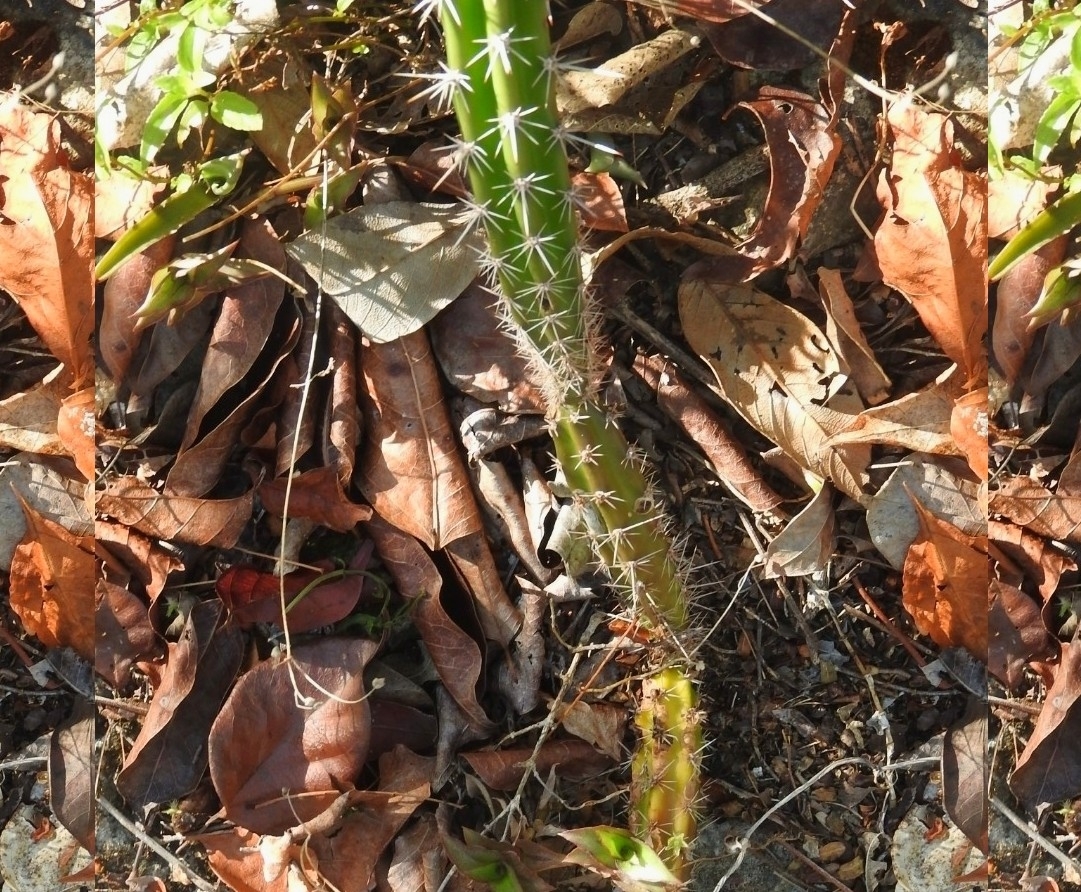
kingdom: Plantae
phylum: Tracheophyta
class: Magnoliopsida
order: Caryophyllales
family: Cactaceae
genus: Pilosocereus
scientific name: Pilosocereus purpusii
